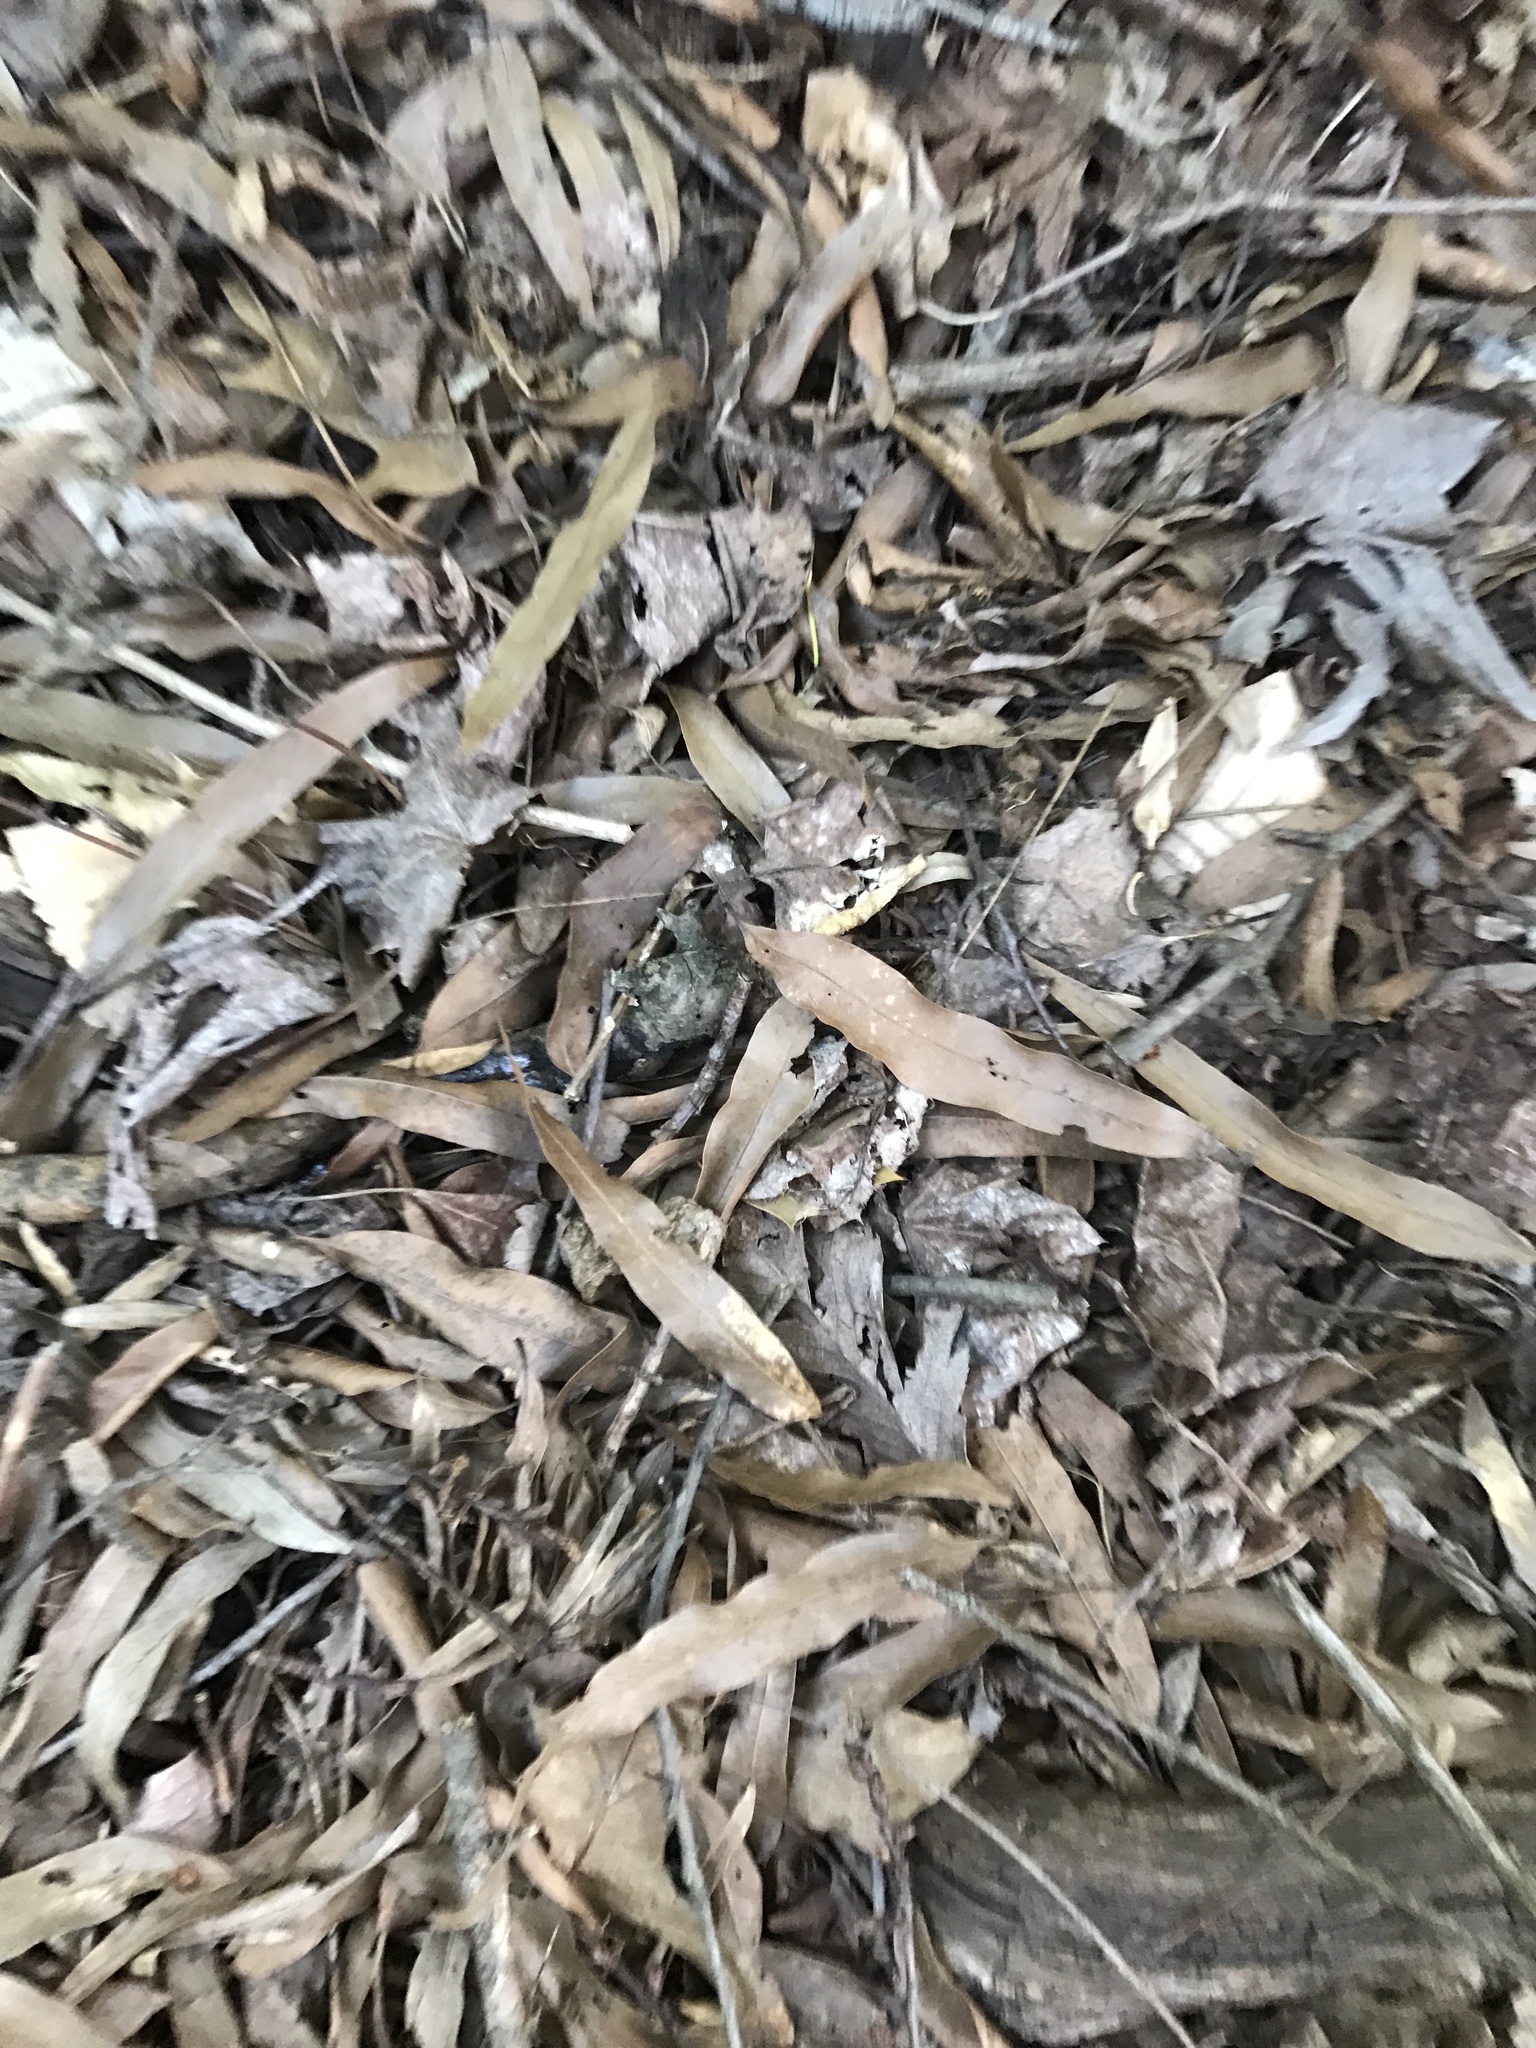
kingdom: Plantae
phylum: Tracheophyta
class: Magnoliopsida
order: Fagales
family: Fagaceae
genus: Quercus
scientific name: Quercus phellos
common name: Willow oak
